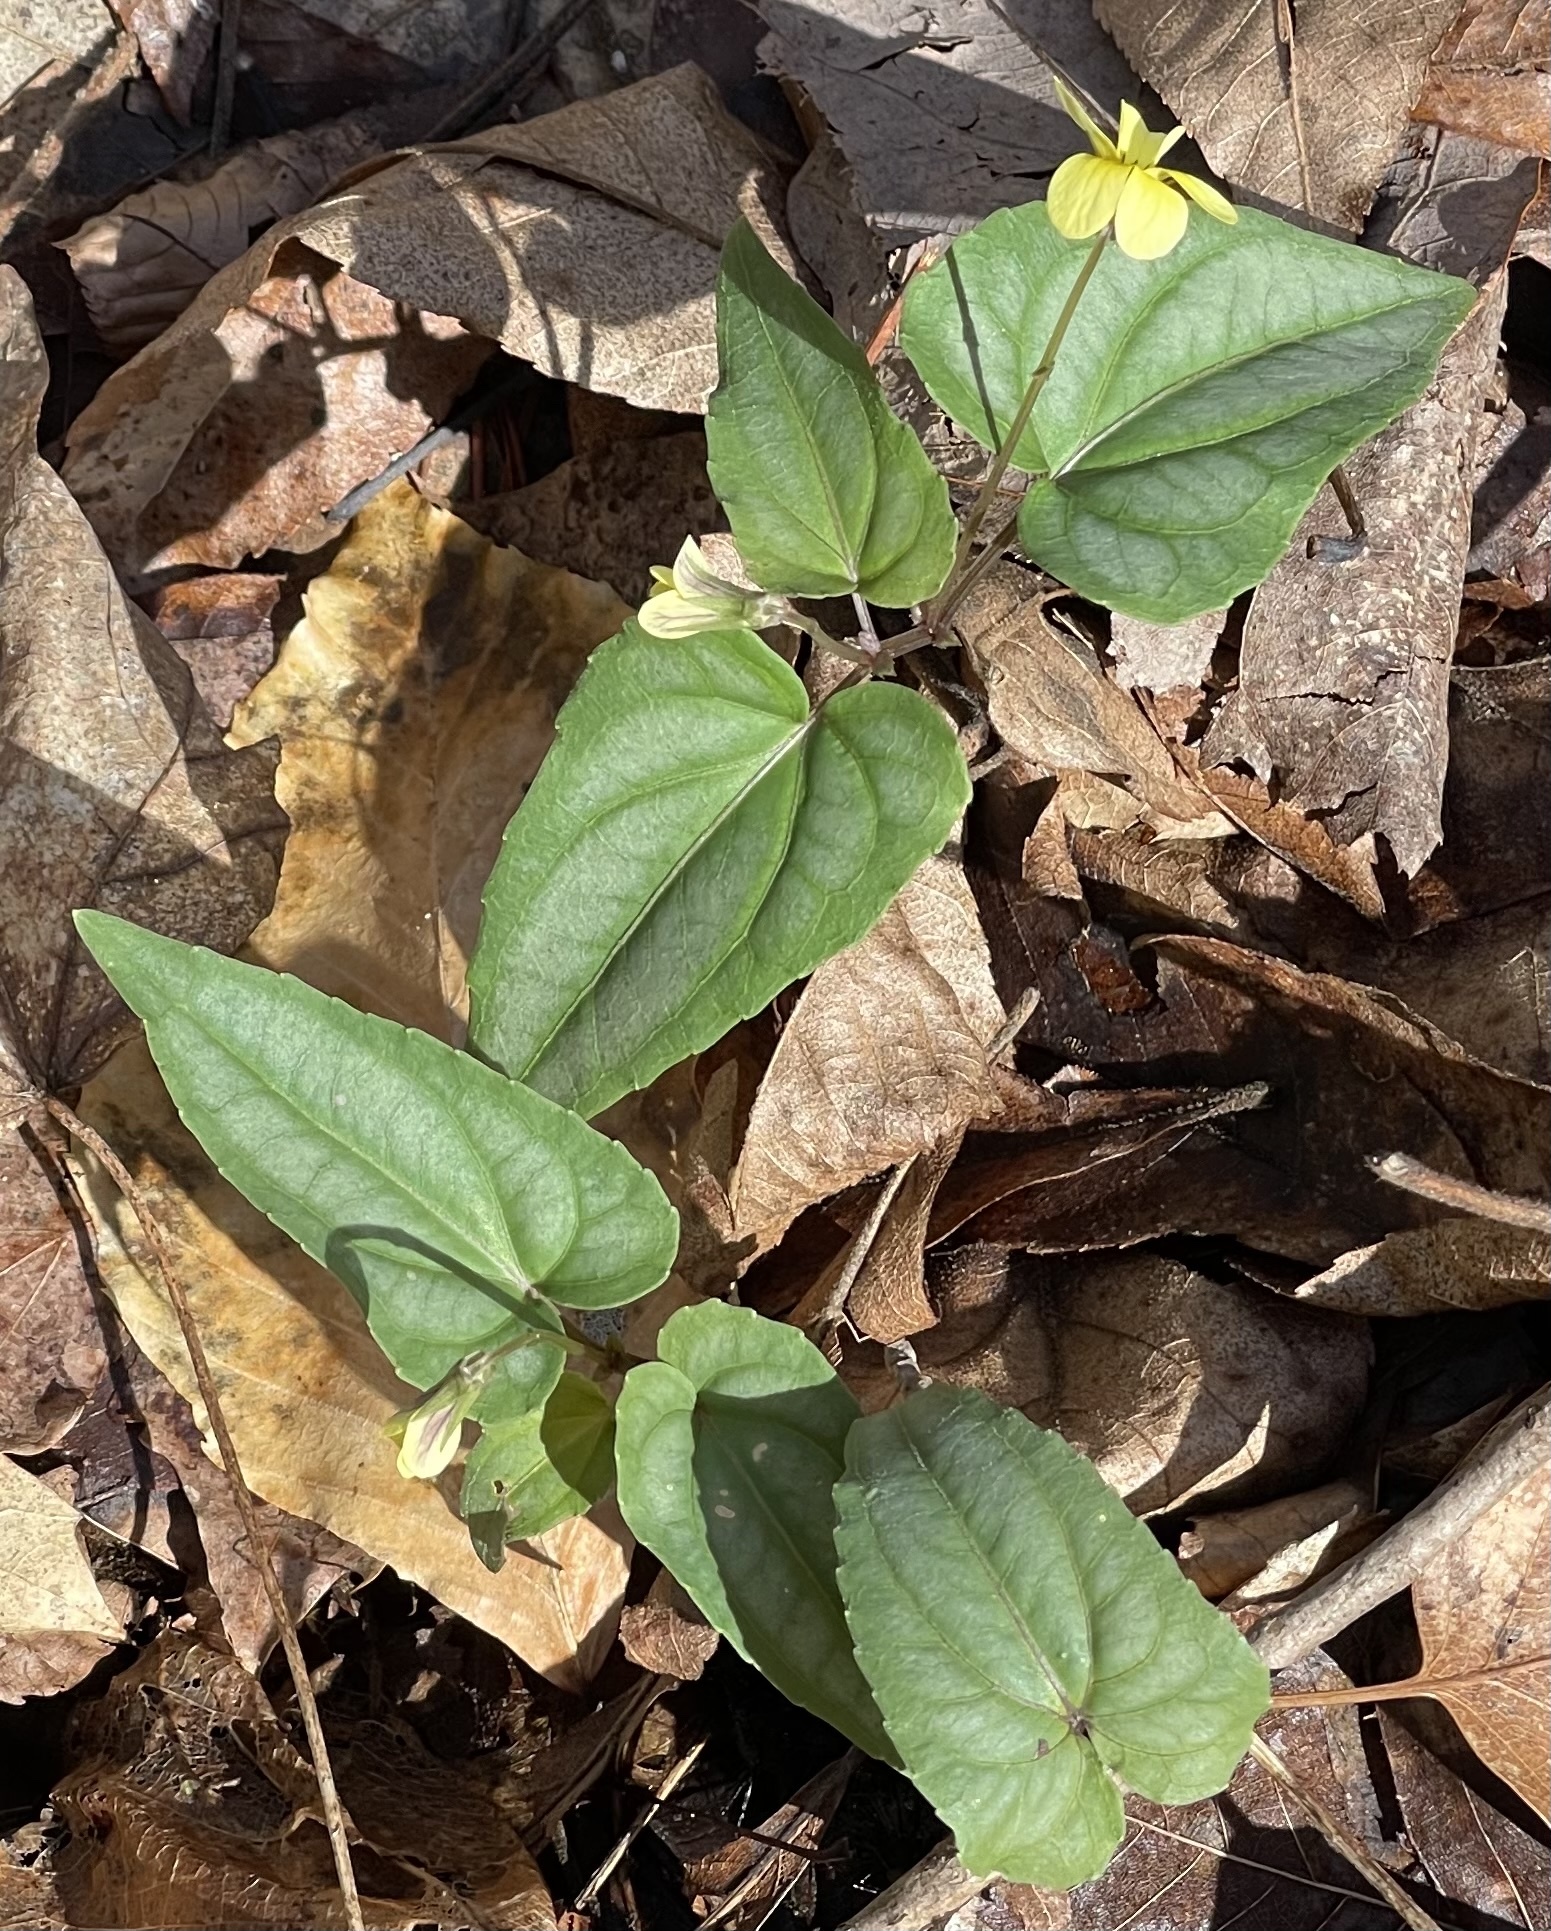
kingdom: Plantae
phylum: Tracheophyta
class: Magnoliopsida
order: Malpighiales
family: Violaceae
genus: Viola
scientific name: Viola hastata
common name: Spear-leaf violet
